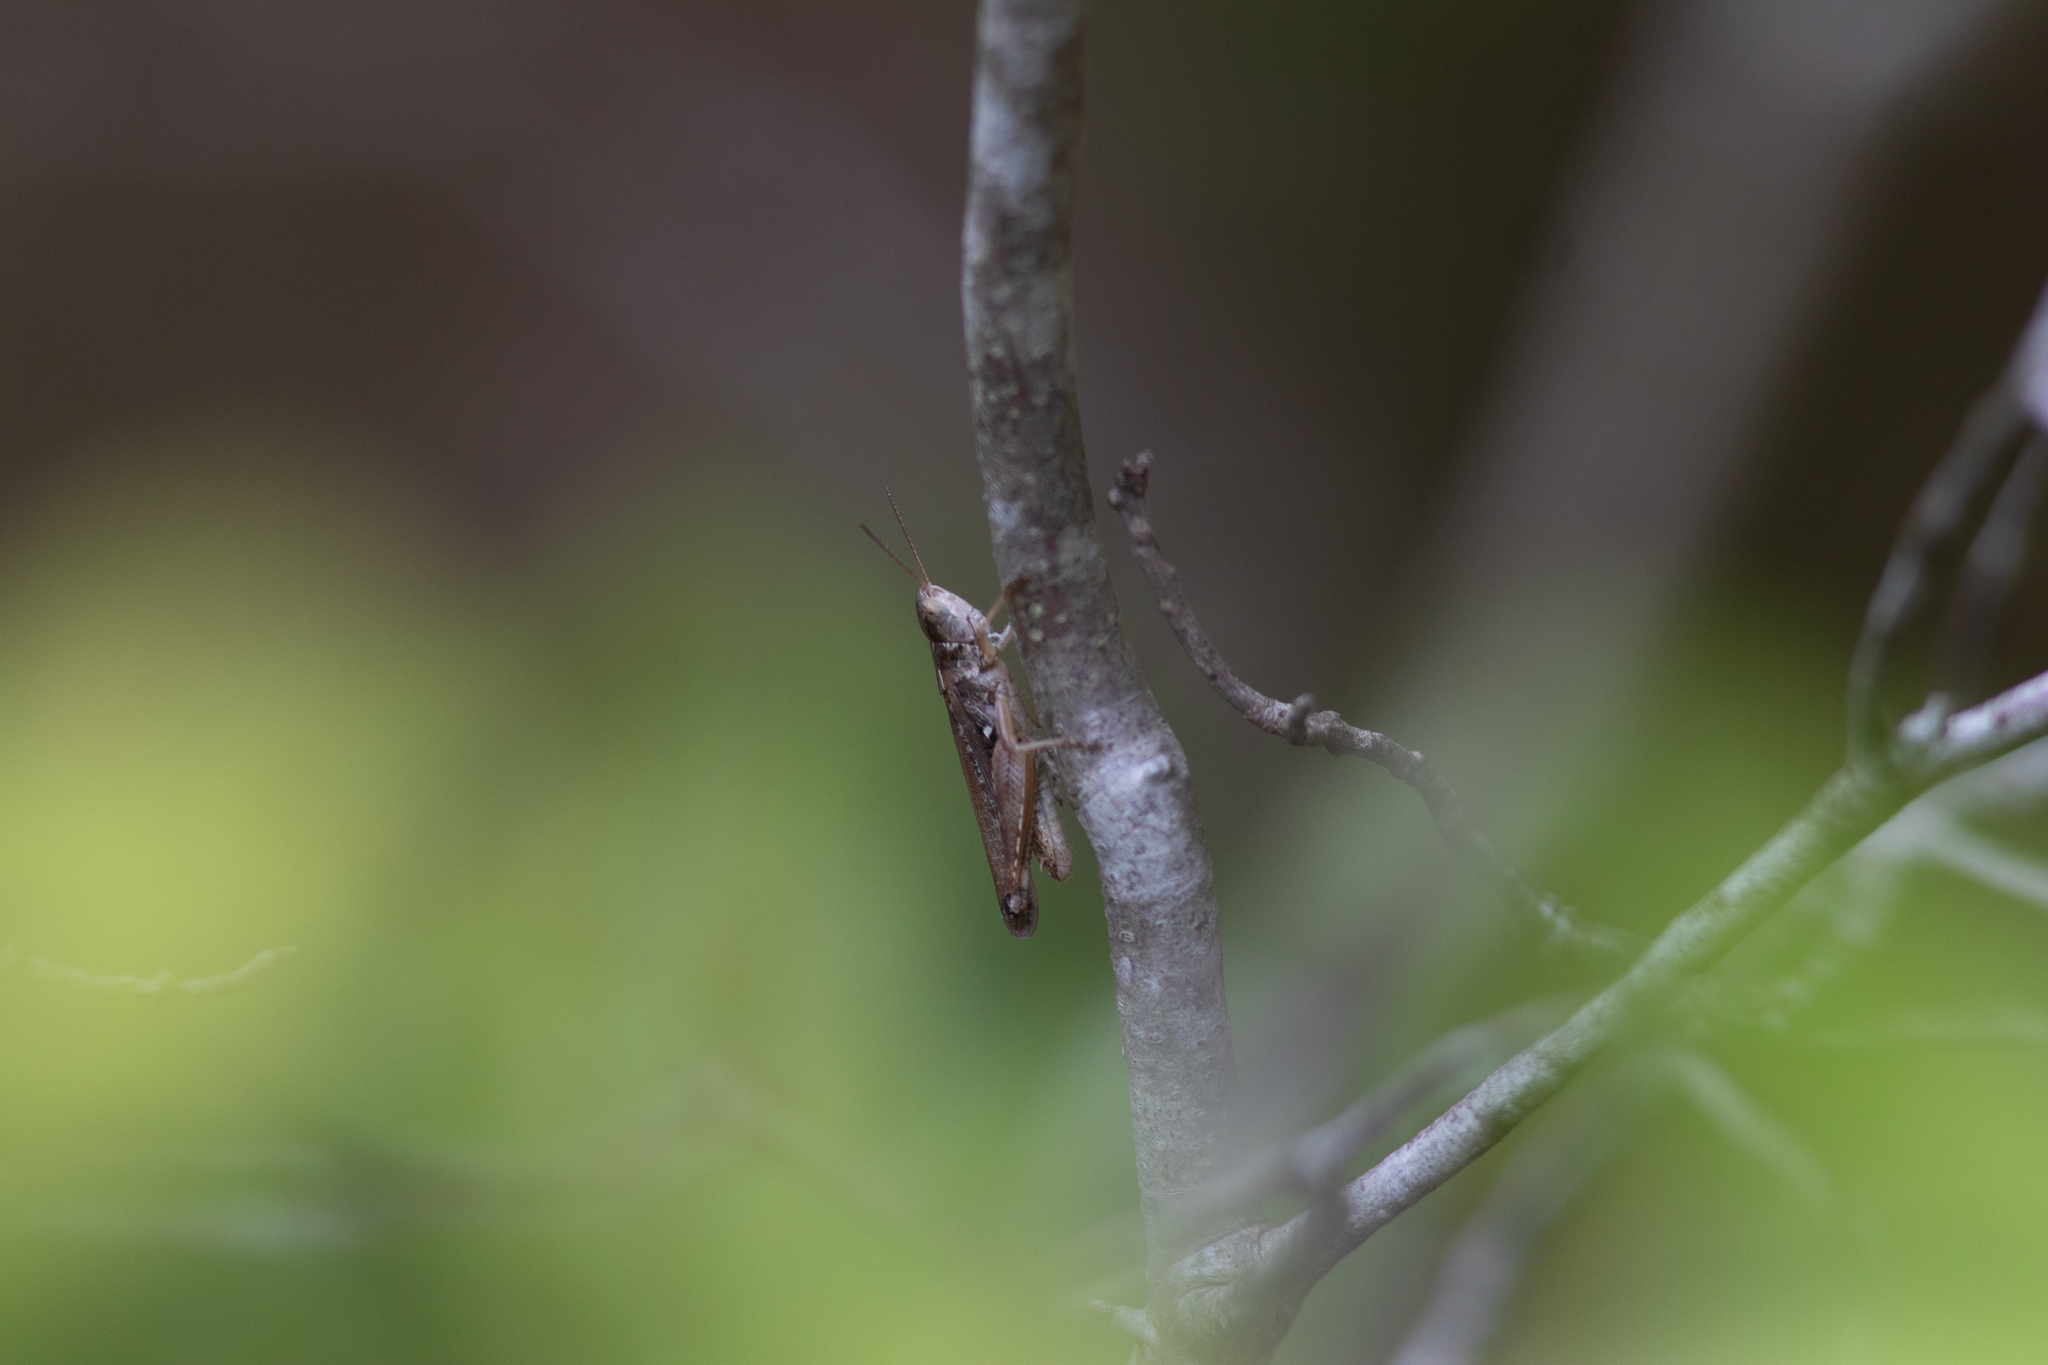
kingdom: Animalia
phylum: Arthropoda
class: Insecta
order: Orthoptera
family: Acrididae
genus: Orphulella
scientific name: Orphulella pelidna
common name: Spotted-wing grasshopper
